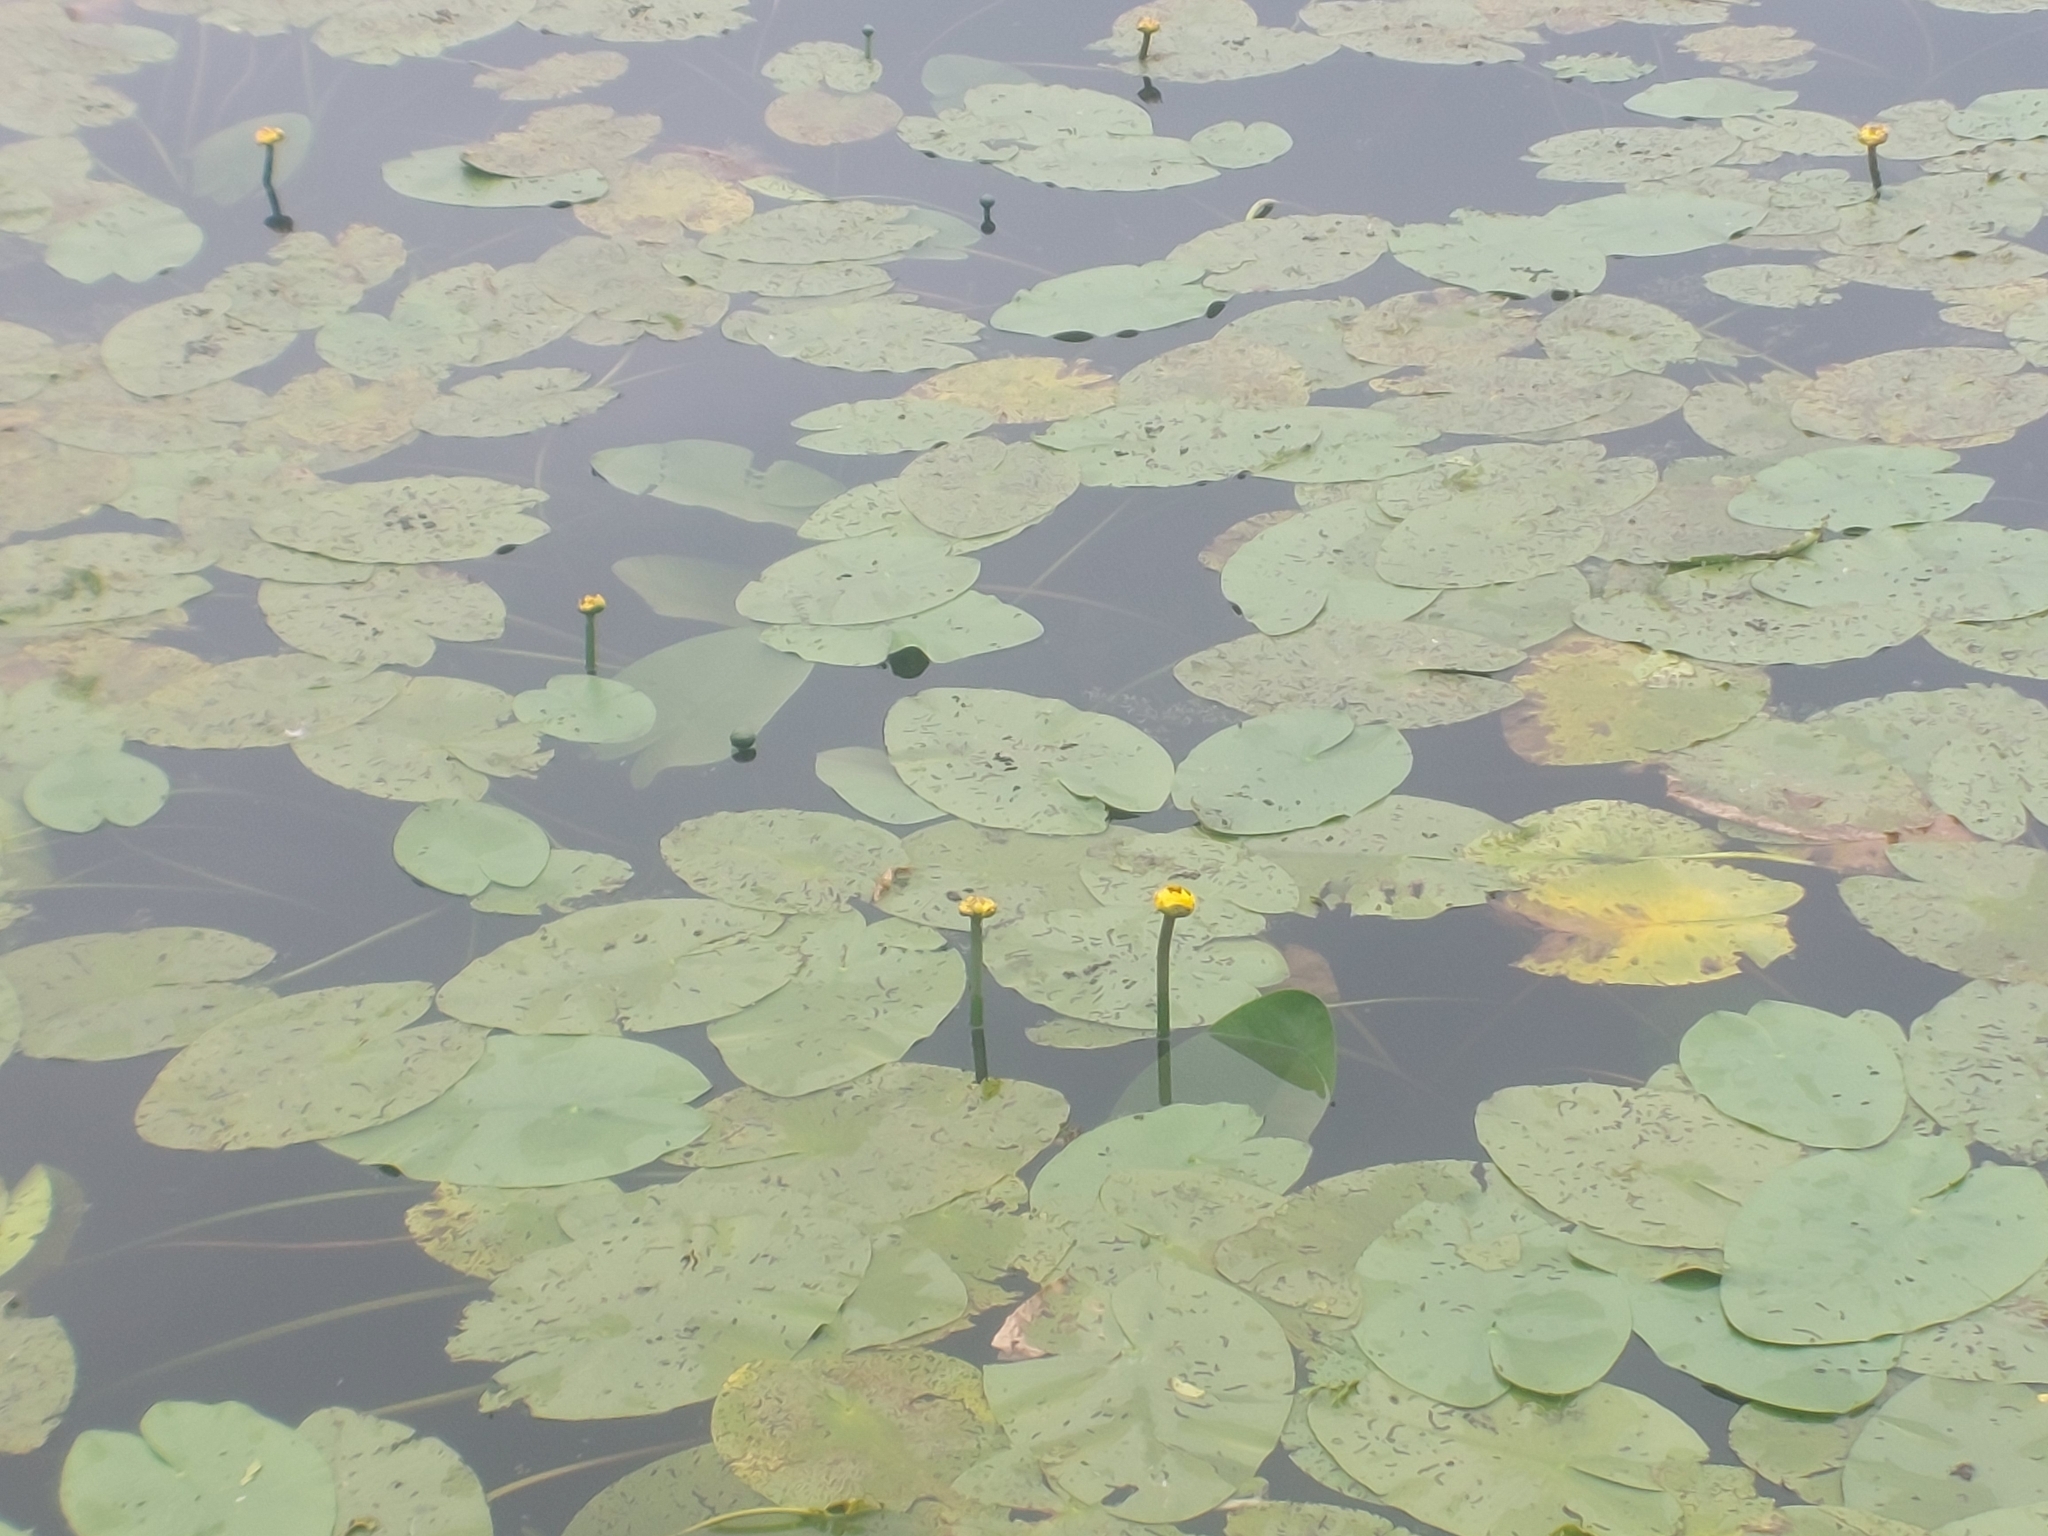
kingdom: Plantae
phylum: Tracheophyta
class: Magnoliopsida
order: Nymphaeales
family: Nymphaeaceae
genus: Nuphar
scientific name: Nuphar lutea
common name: Yellow water-lily
